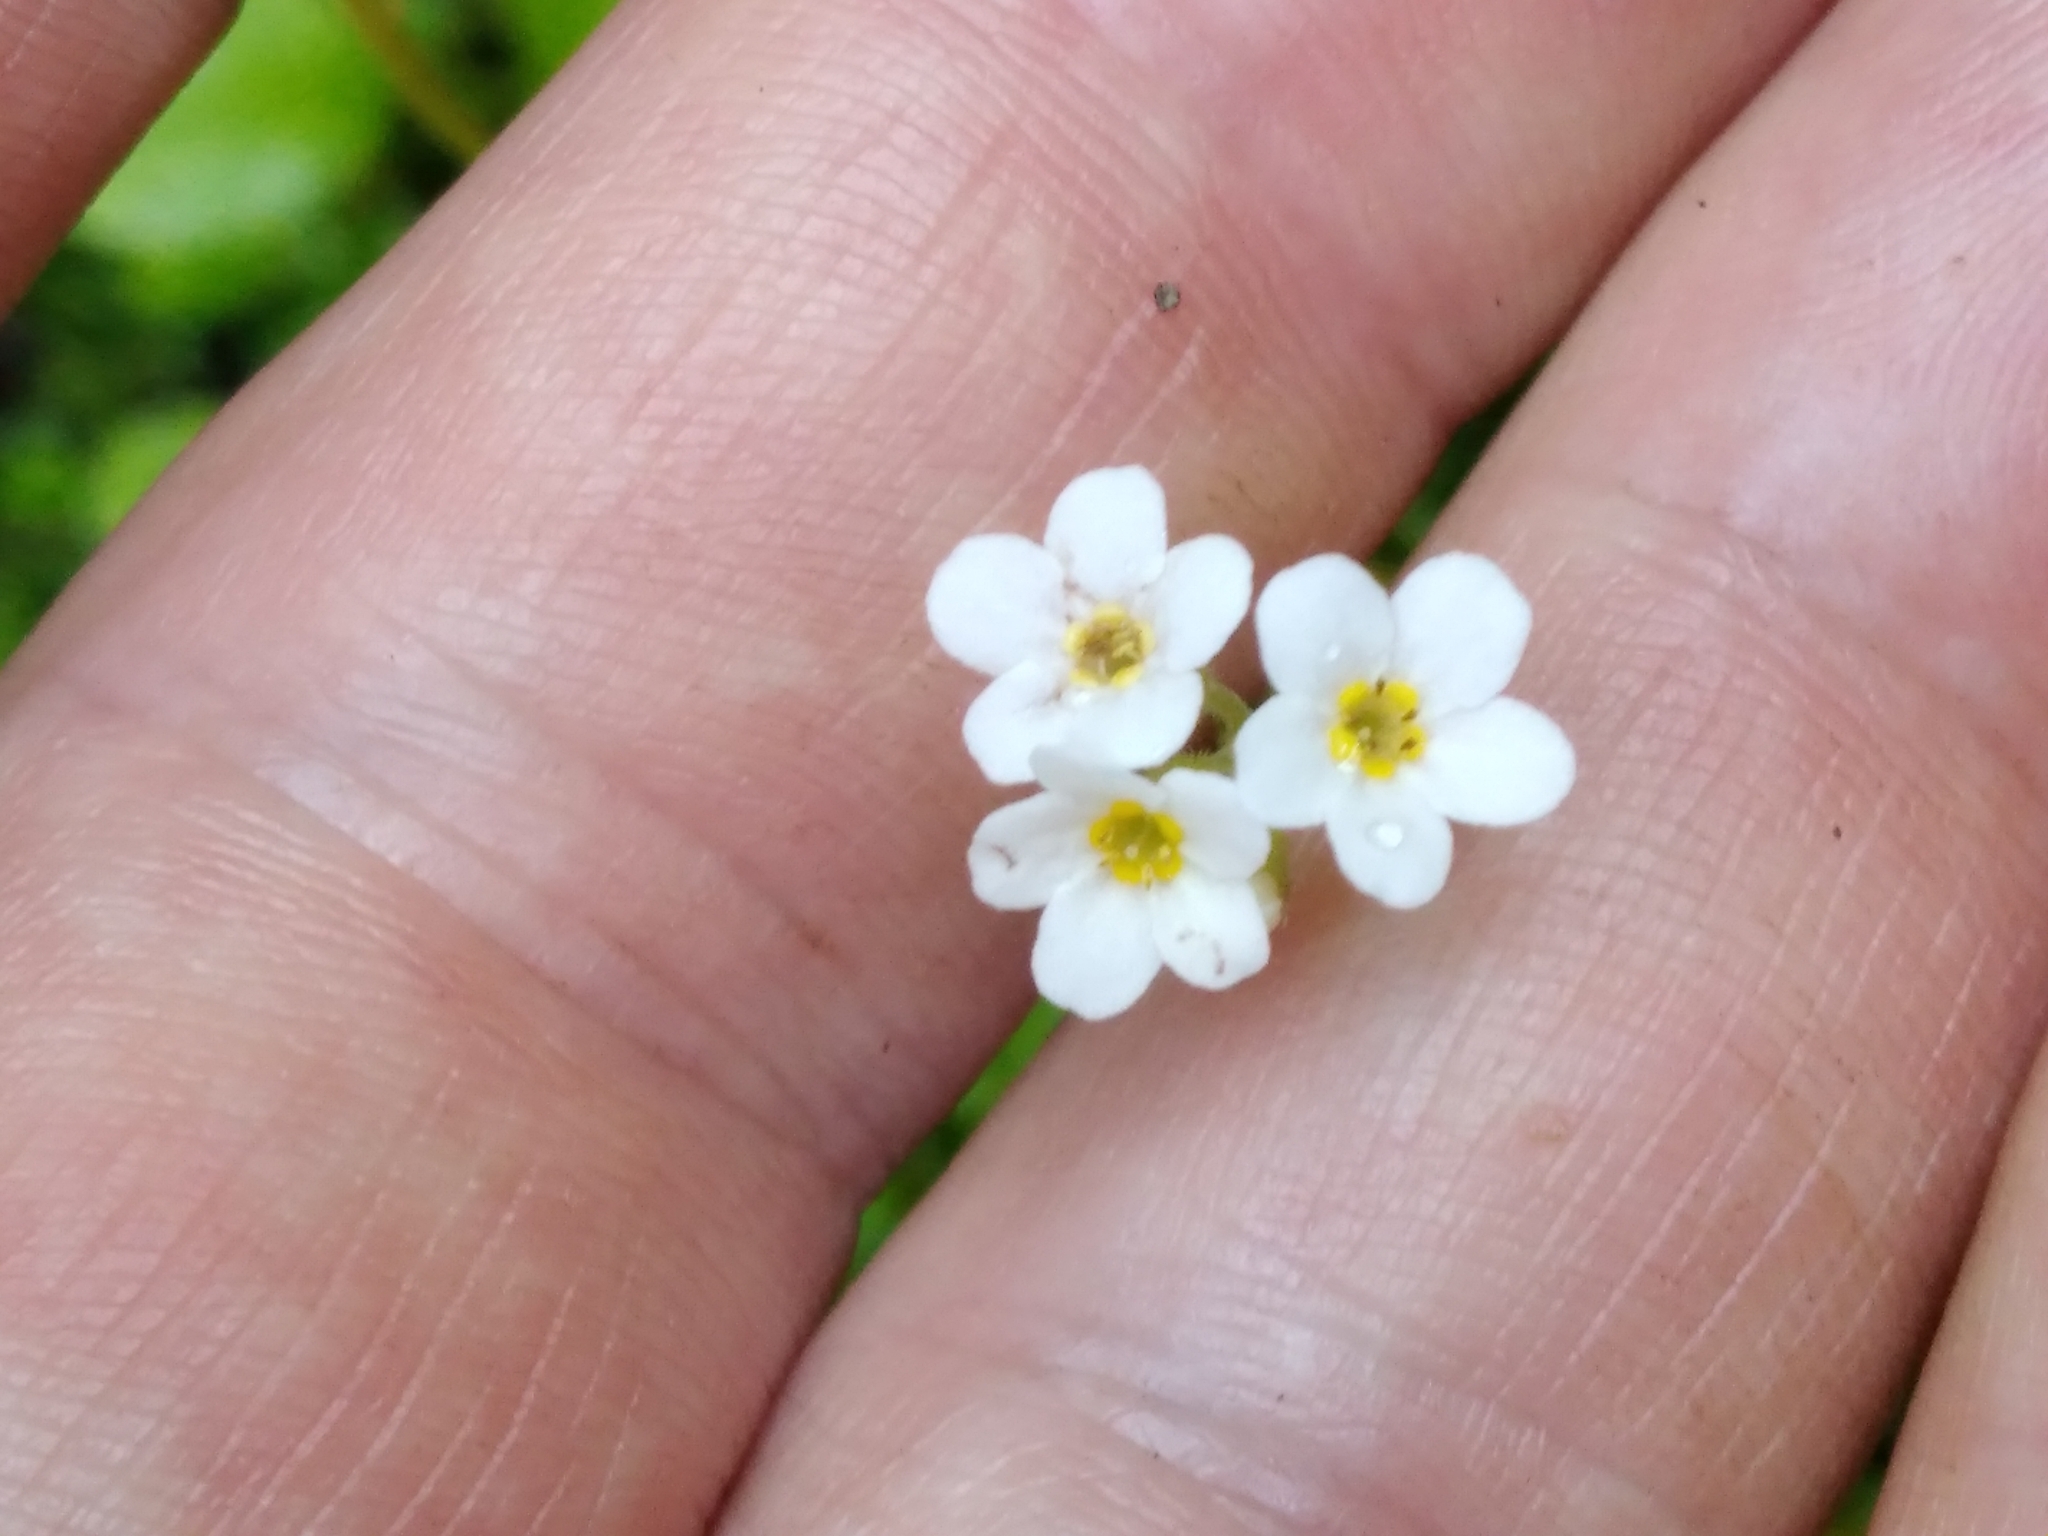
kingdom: Plantae
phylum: Tracheophyta
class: Magnoliopsida
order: Boraginales
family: Boraginaceae
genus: Myosotis
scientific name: Myosotis forsteri
